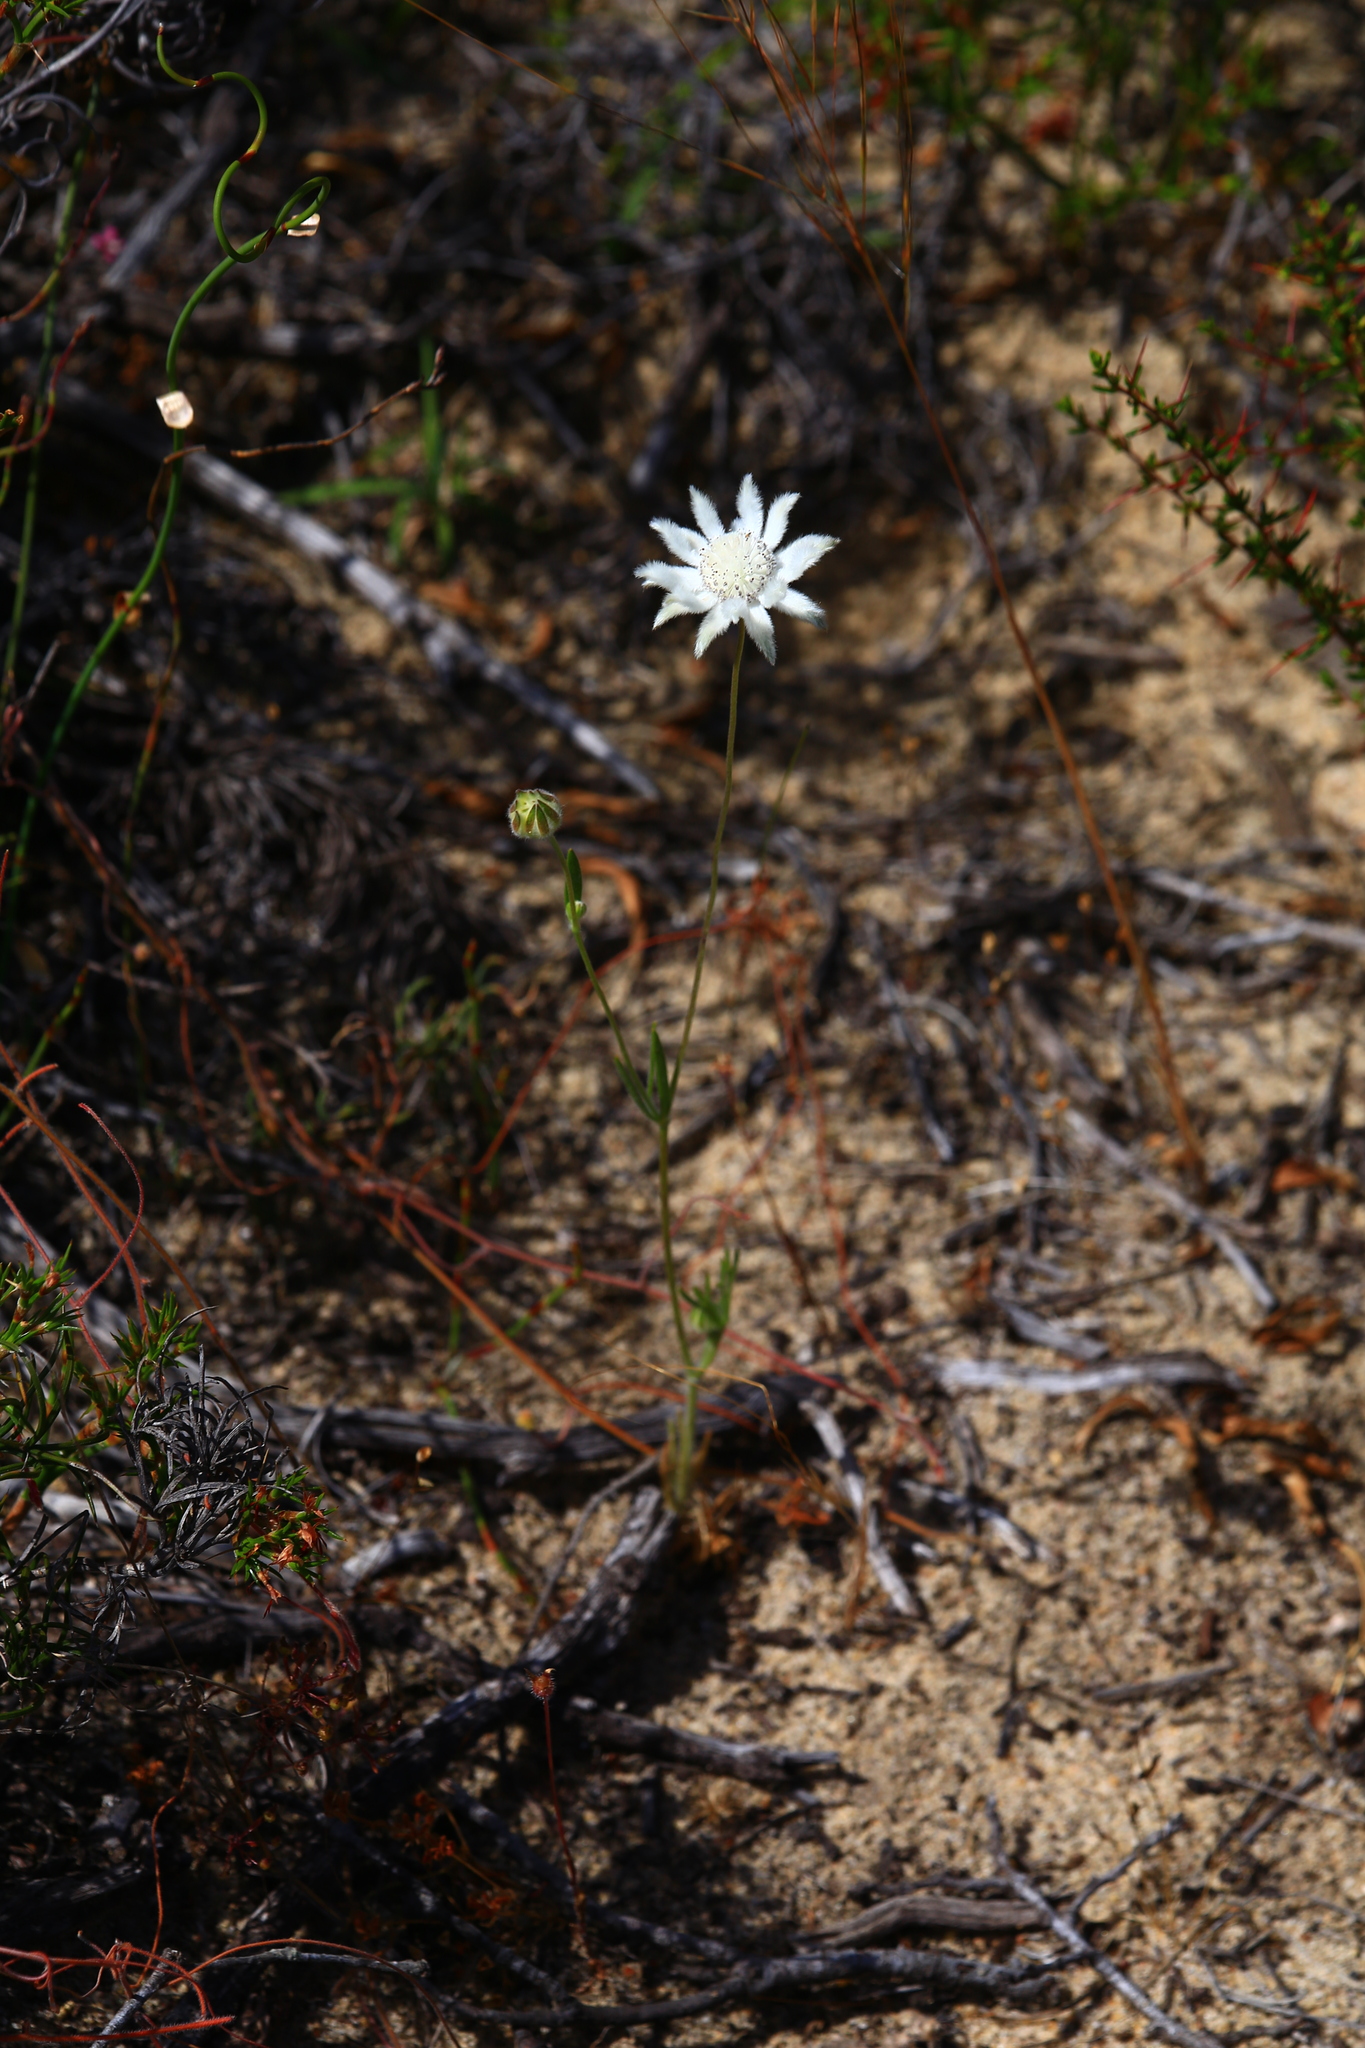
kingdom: Plantae
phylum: Tracheophyta
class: Magnoliopsida
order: Apiales
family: Apiaceae
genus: Actinotus
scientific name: Actinotus leucocephalus
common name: Flannel-flower
